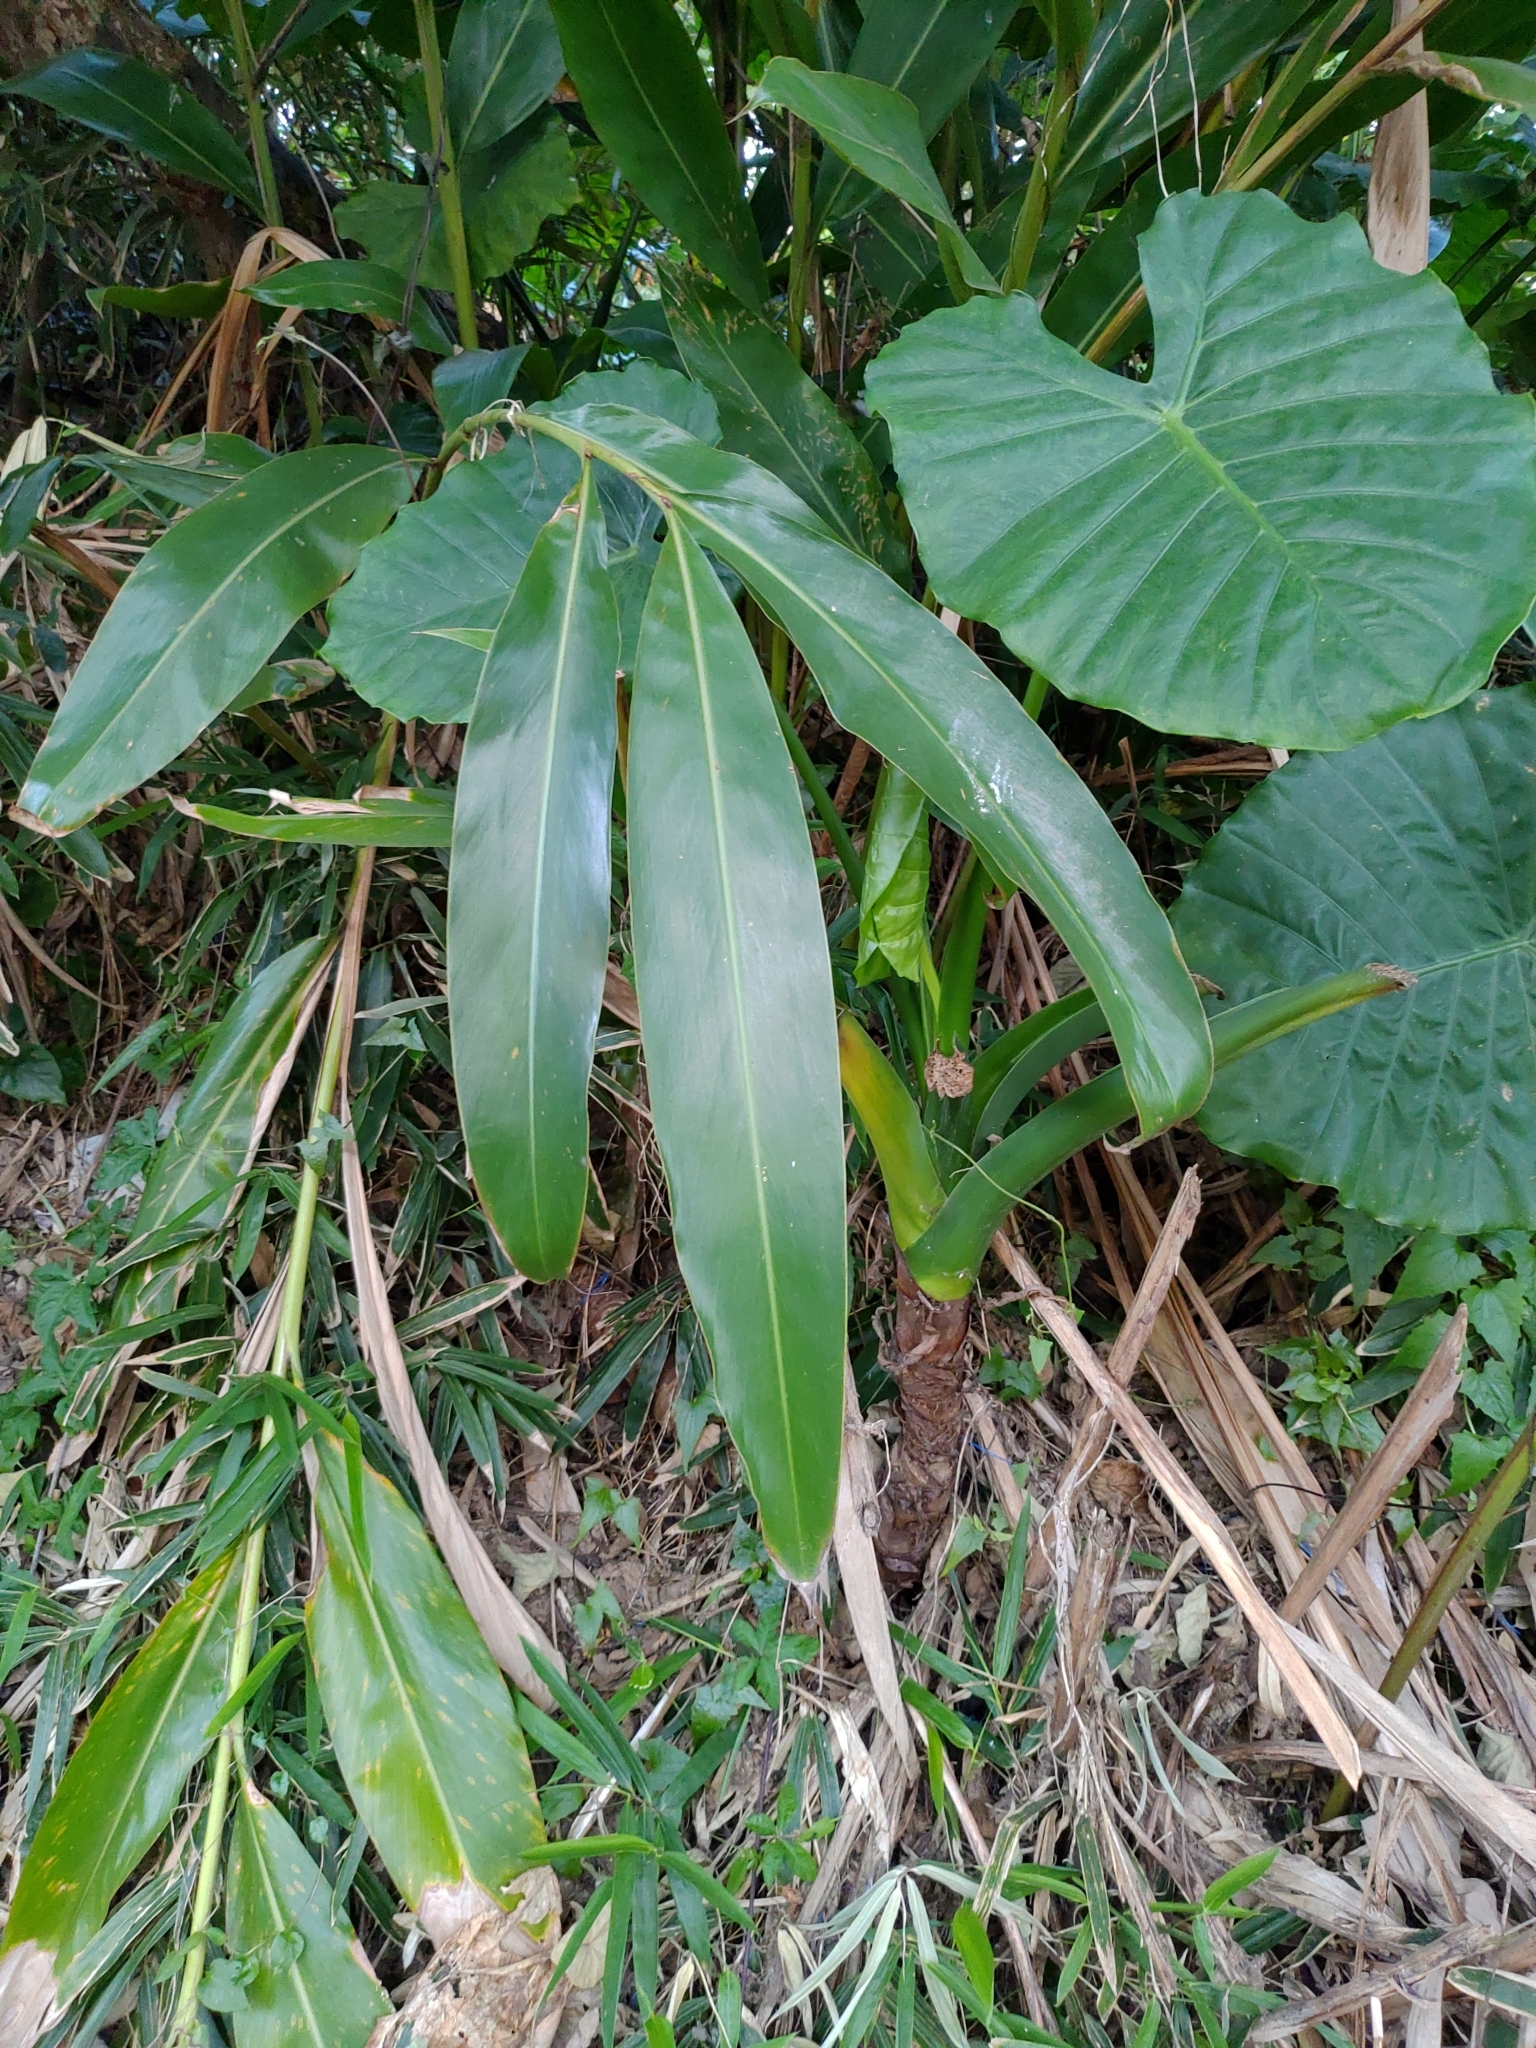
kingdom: Plantae
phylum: Tracheophyta
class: Liliopsida
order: Zingiberales
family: Zingiberaceae
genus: Alpinia
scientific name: Alpinia zerumbet
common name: Shellplant
